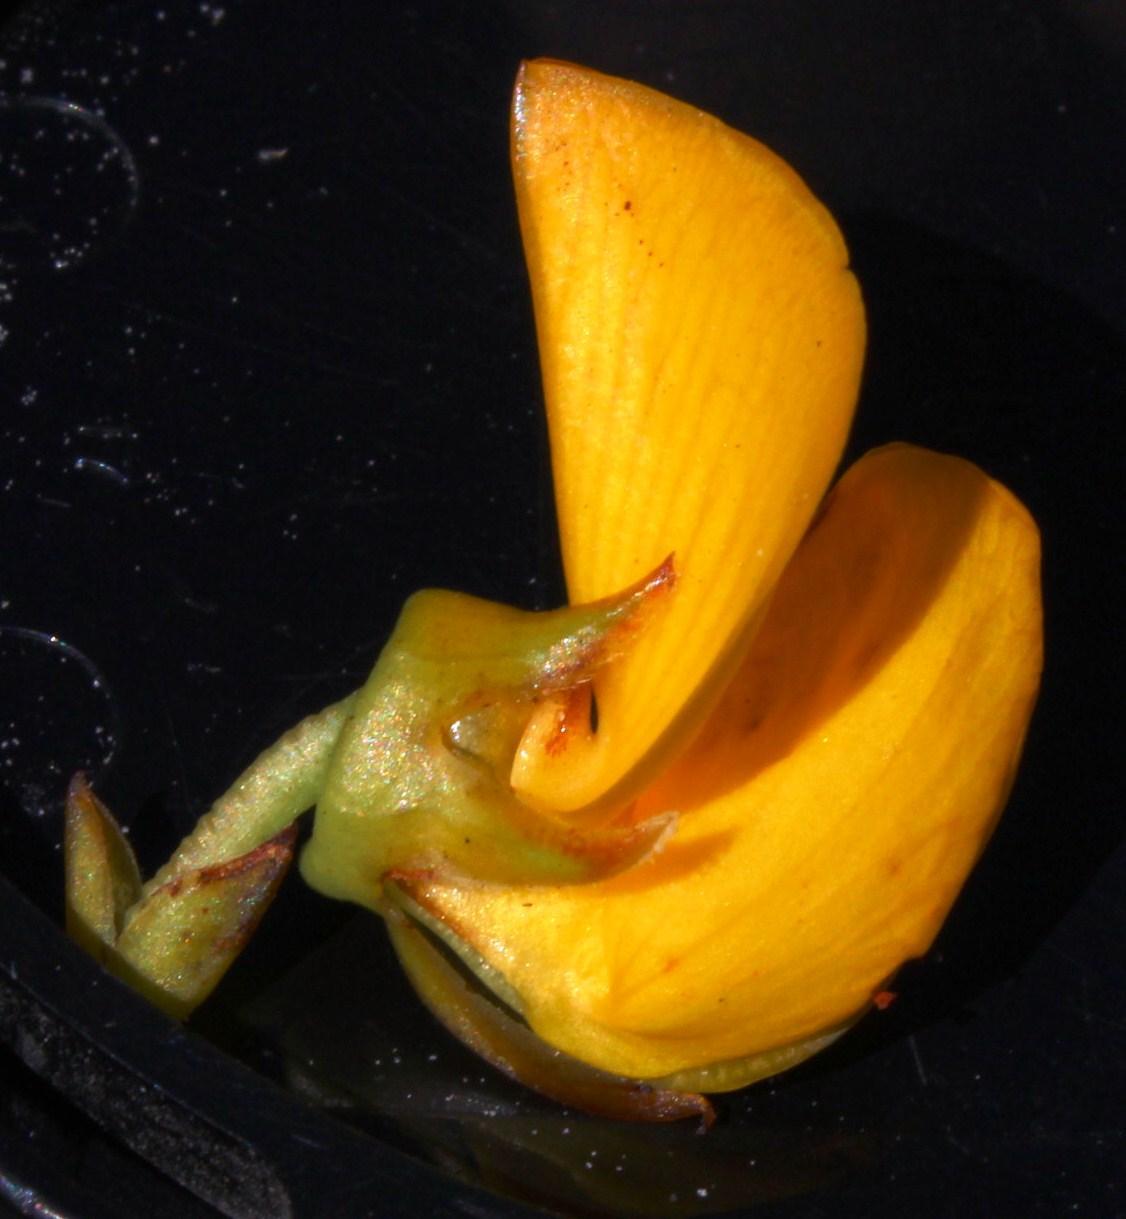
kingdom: Plantae
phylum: Tracheophyta
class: Magnoliopsida
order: Fabales
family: Fabaceae
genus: Cyclopia
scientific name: Cyclopia genistoides
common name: Honeybush tea
